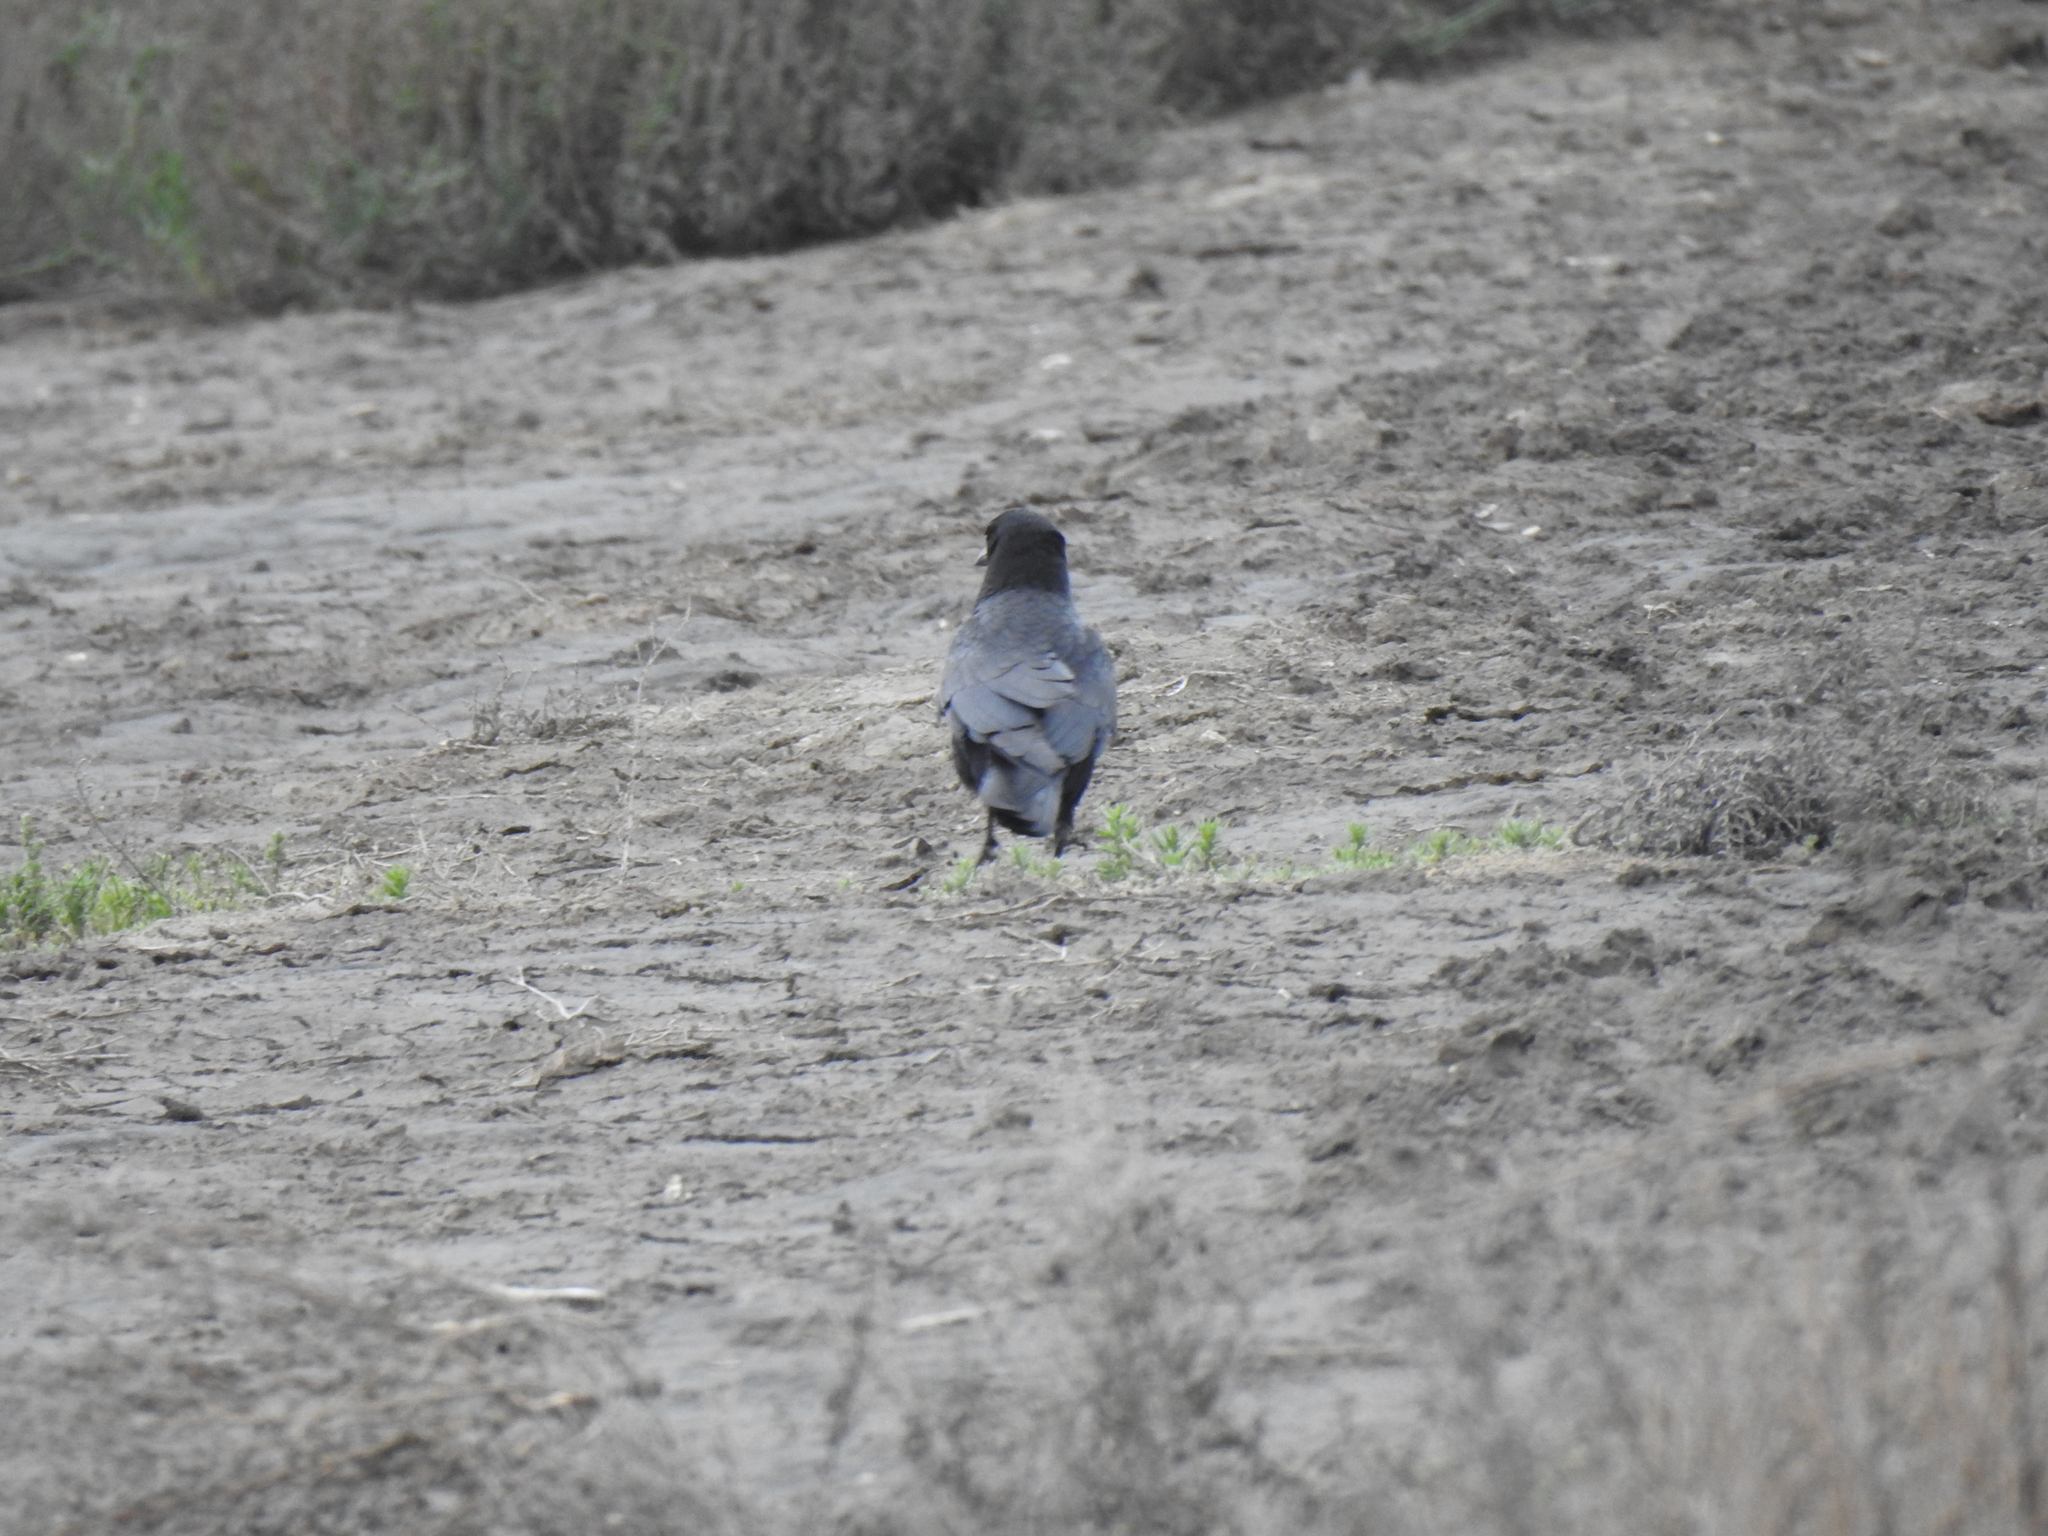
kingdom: Animalia
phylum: Chordata
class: Aves
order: Passeriformes
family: Corvidae
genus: Corvus
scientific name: Corvus brachyrhynchos
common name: American crow
